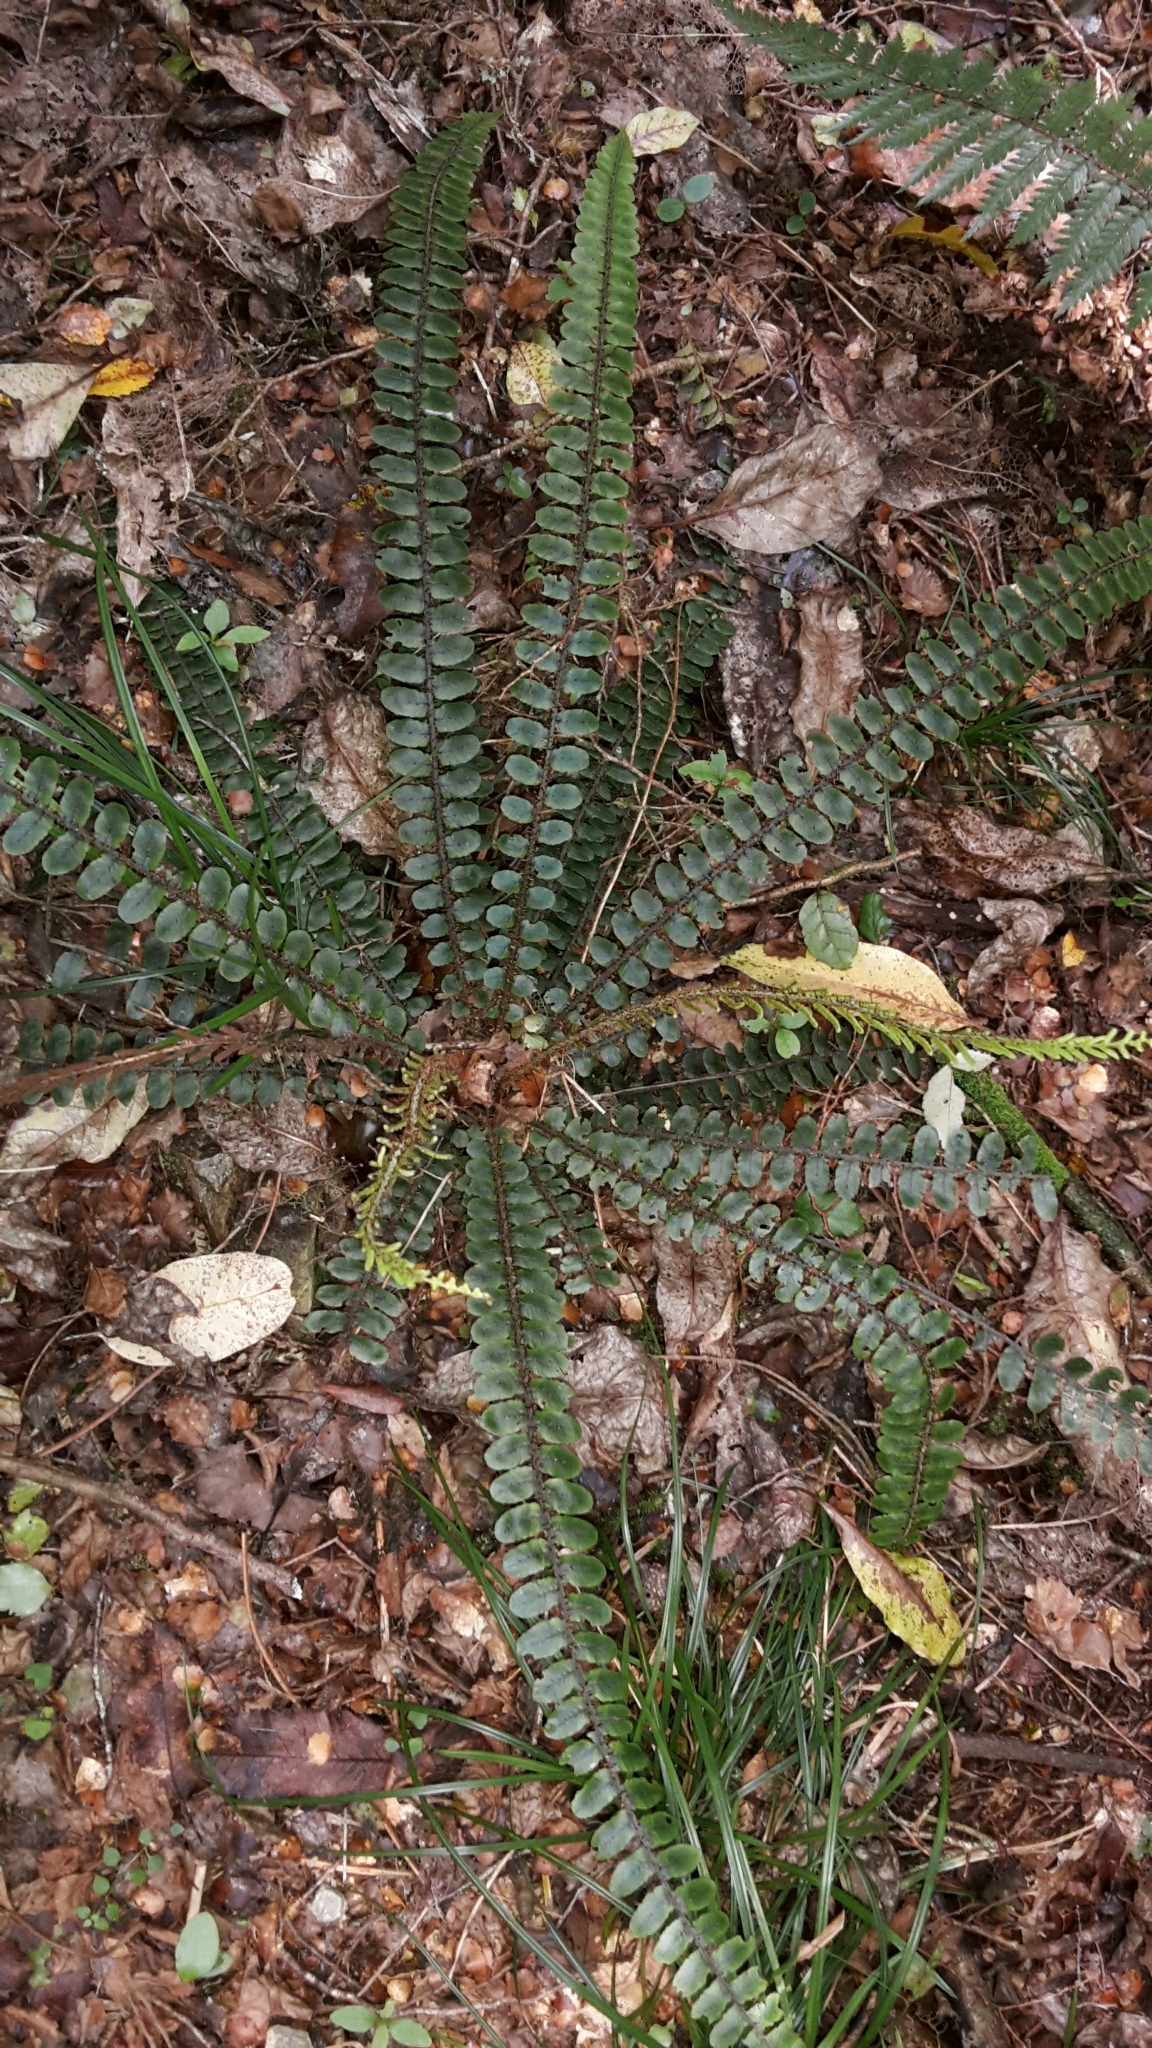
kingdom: Plantae
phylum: Tracheophyta
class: Polypodiopsida
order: Polypodiales
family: Blechnaceae
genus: Cranfillia
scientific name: Cranfillia fluviatilis
